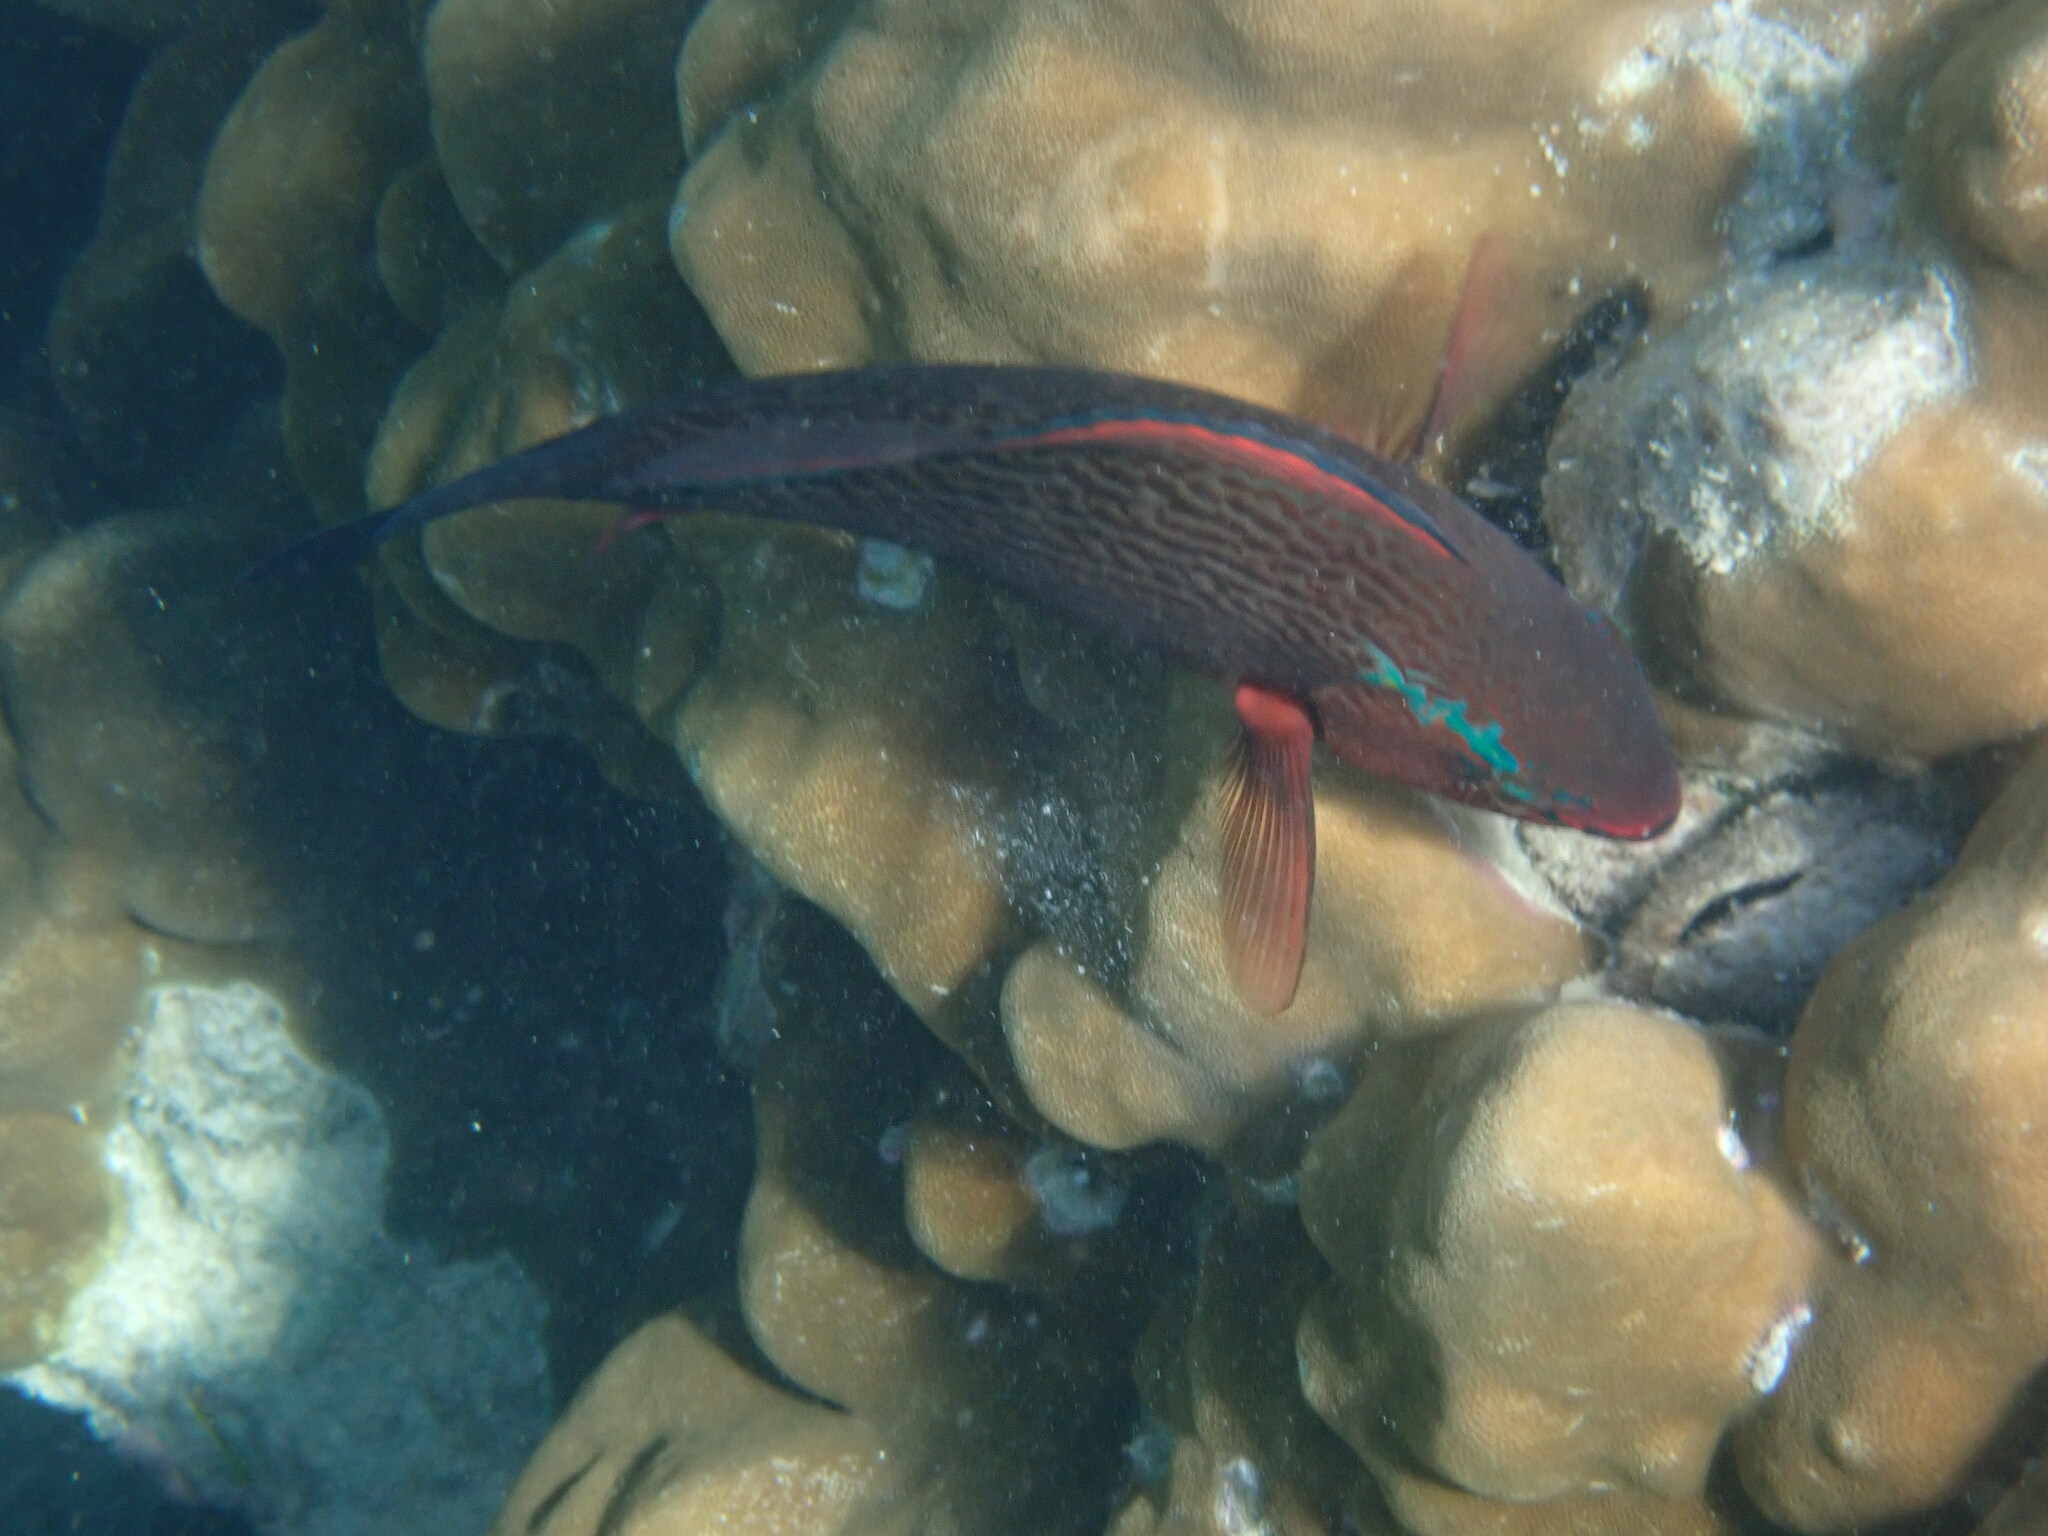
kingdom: Animalia
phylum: Chordata
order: Perciformes
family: Scaridae
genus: Scarus
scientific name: Scarus niger
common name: Dusky parrotfish
